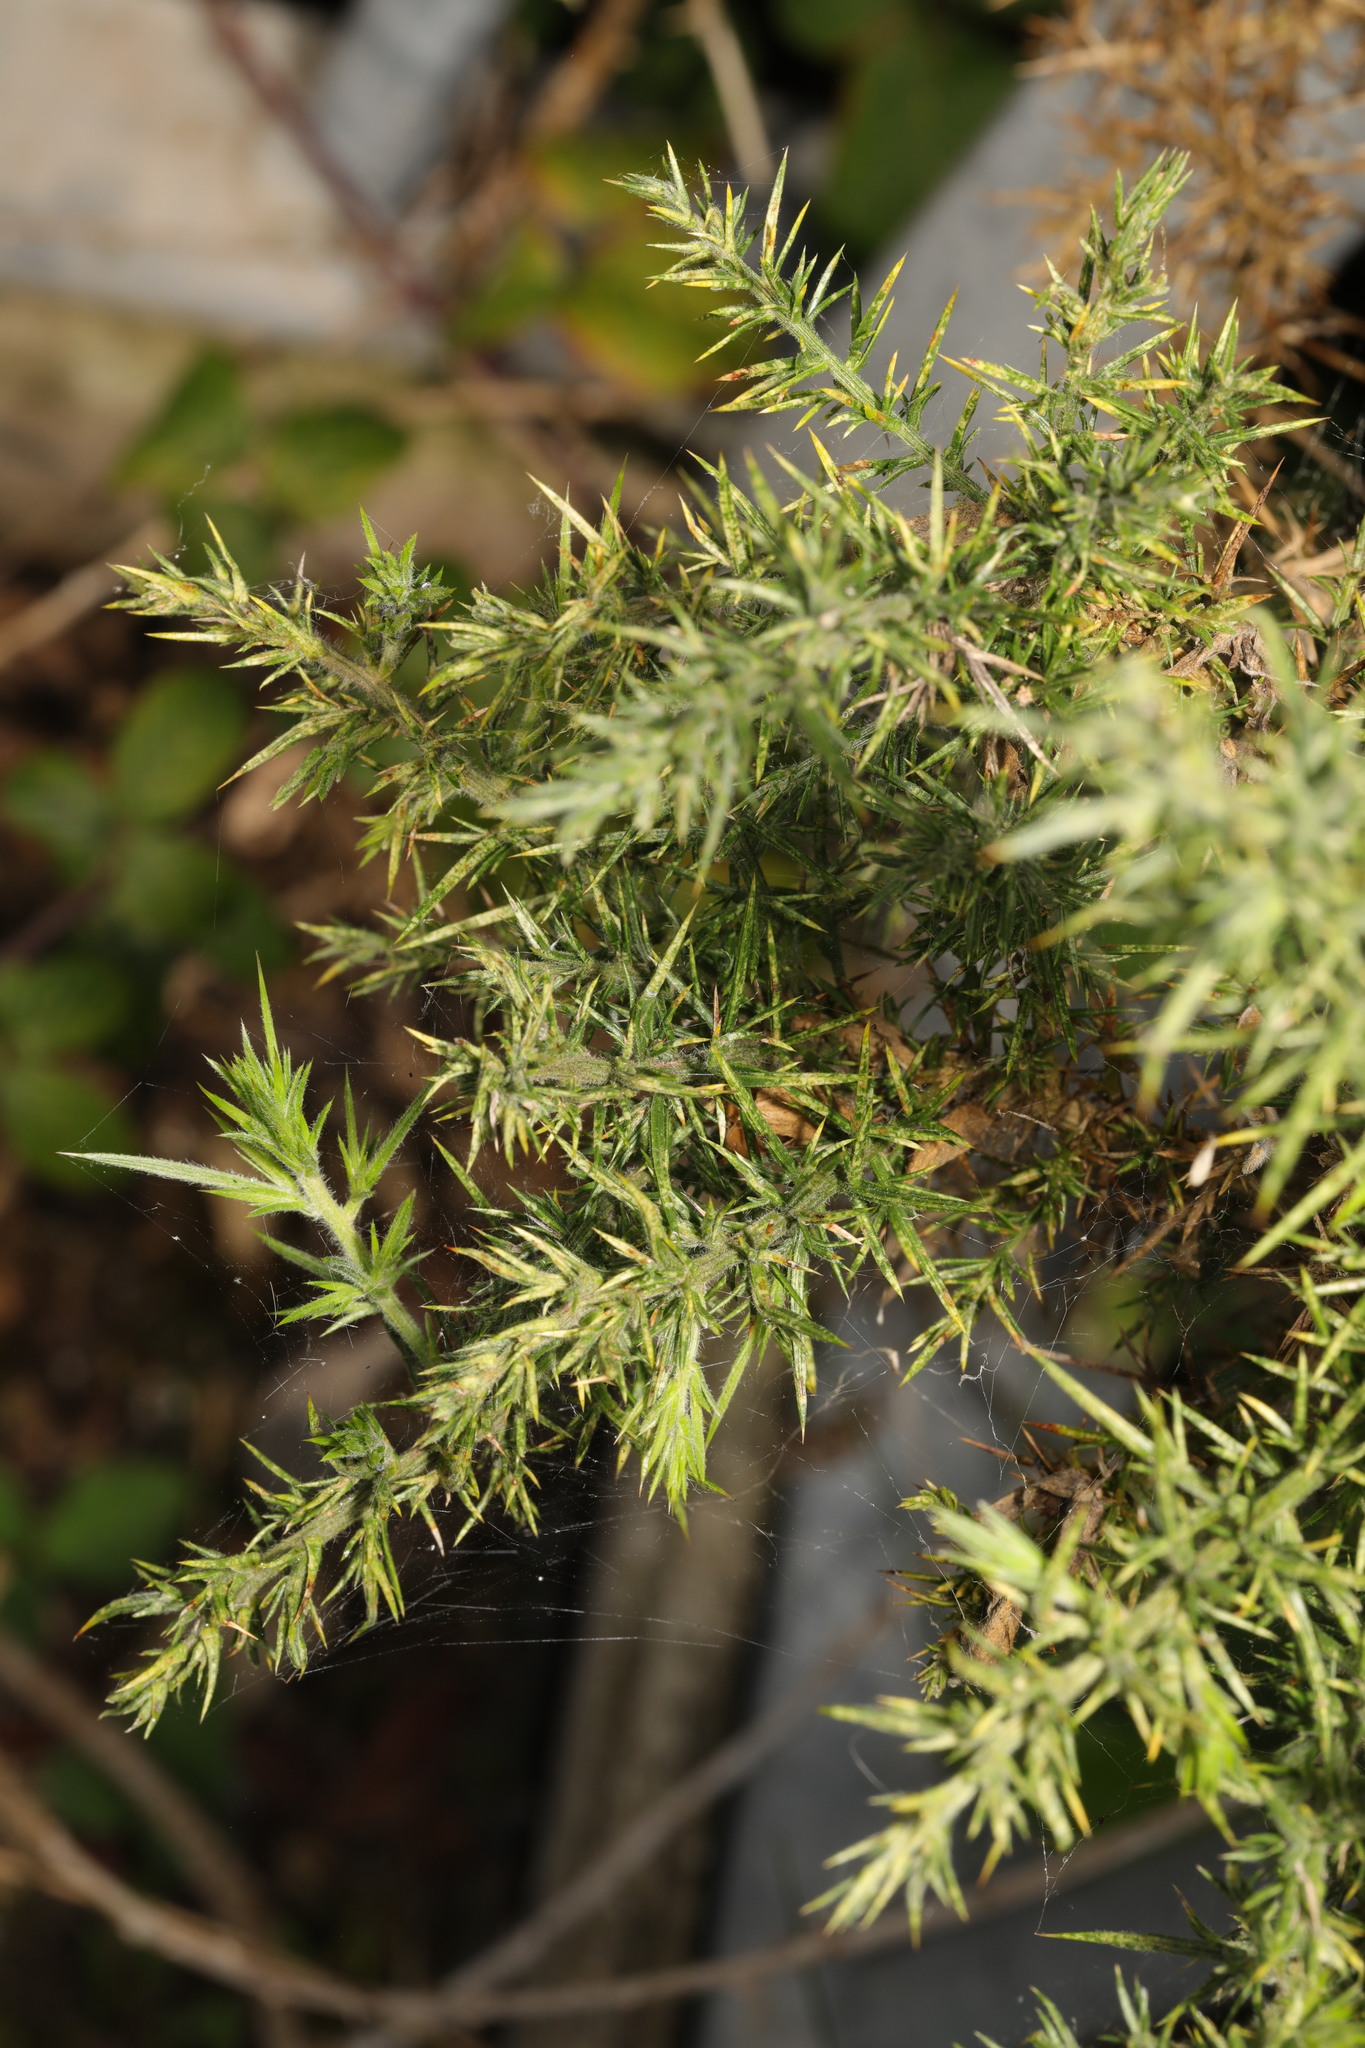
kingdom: Plantae
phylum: Tracheophyta
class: Magnoliopsida
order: Fabales
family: Fabaceae
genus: Ulex
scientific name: Ulex europaeus
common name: Common gorse
